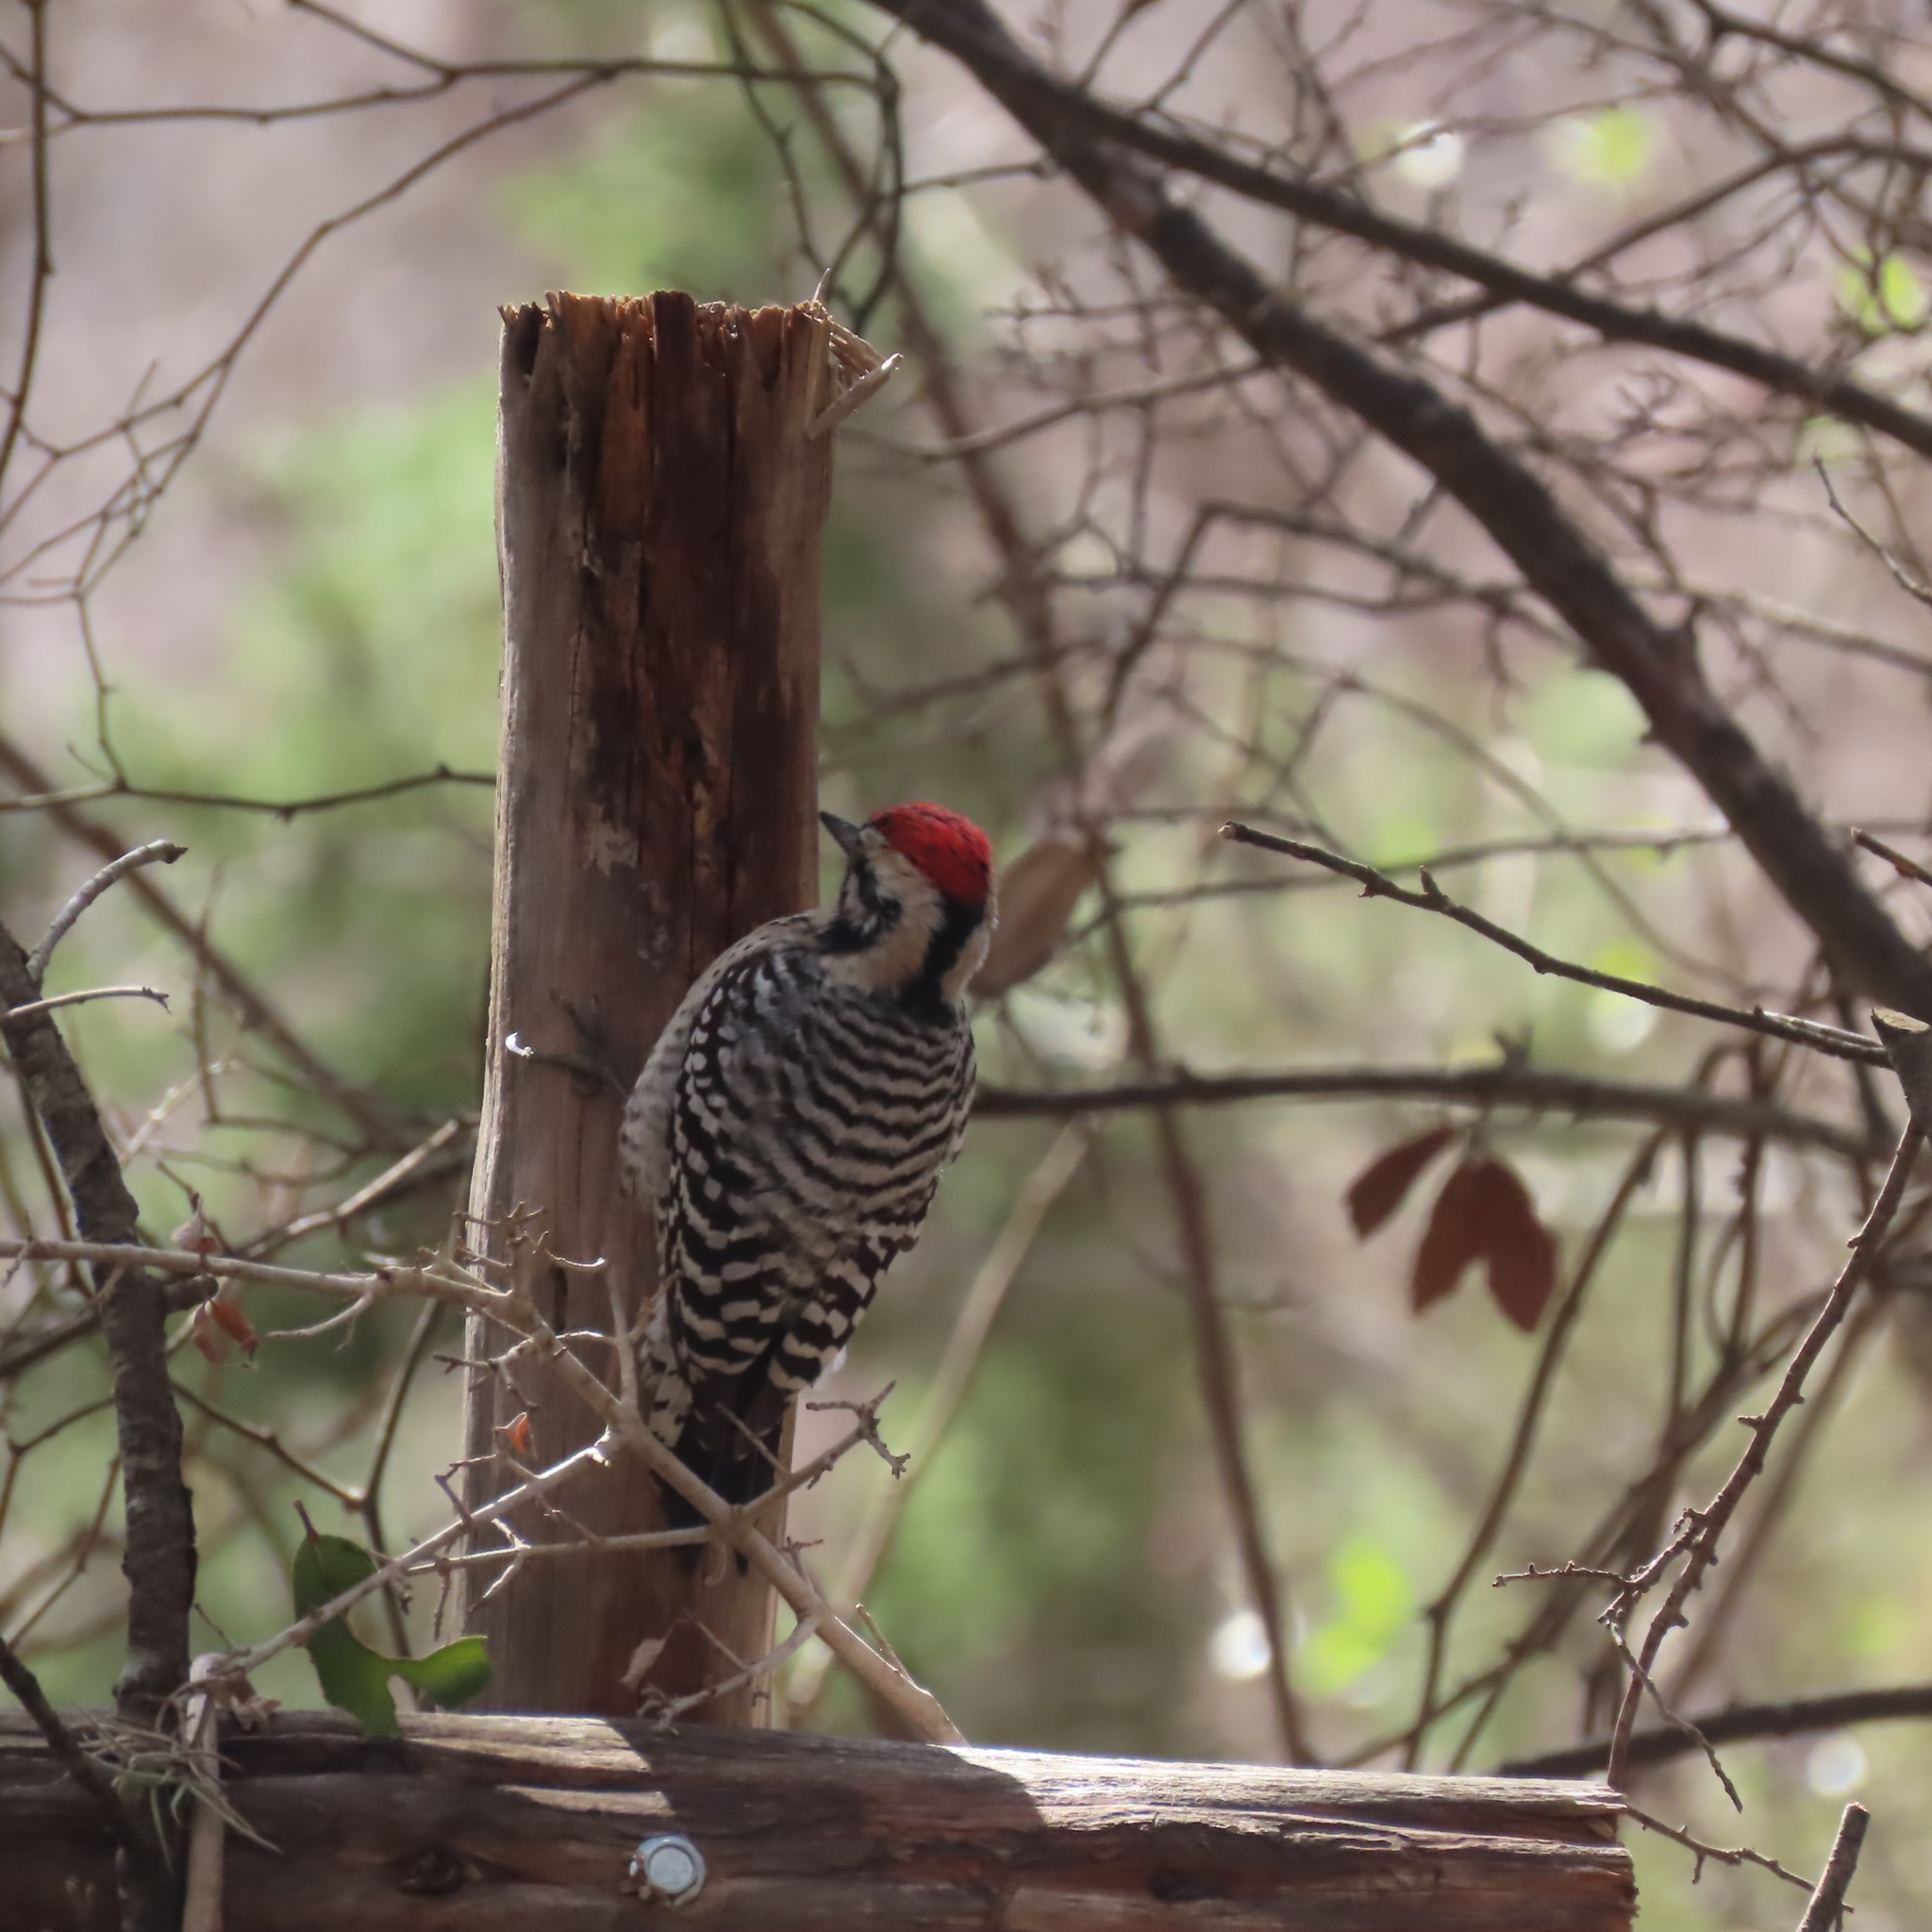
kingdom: Animalia
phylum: Chordata
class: Aves
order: Piciformes
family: Picidae
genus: Dryobates
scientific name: Dryobates scalaris
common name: Ladder-backed woodpecker
